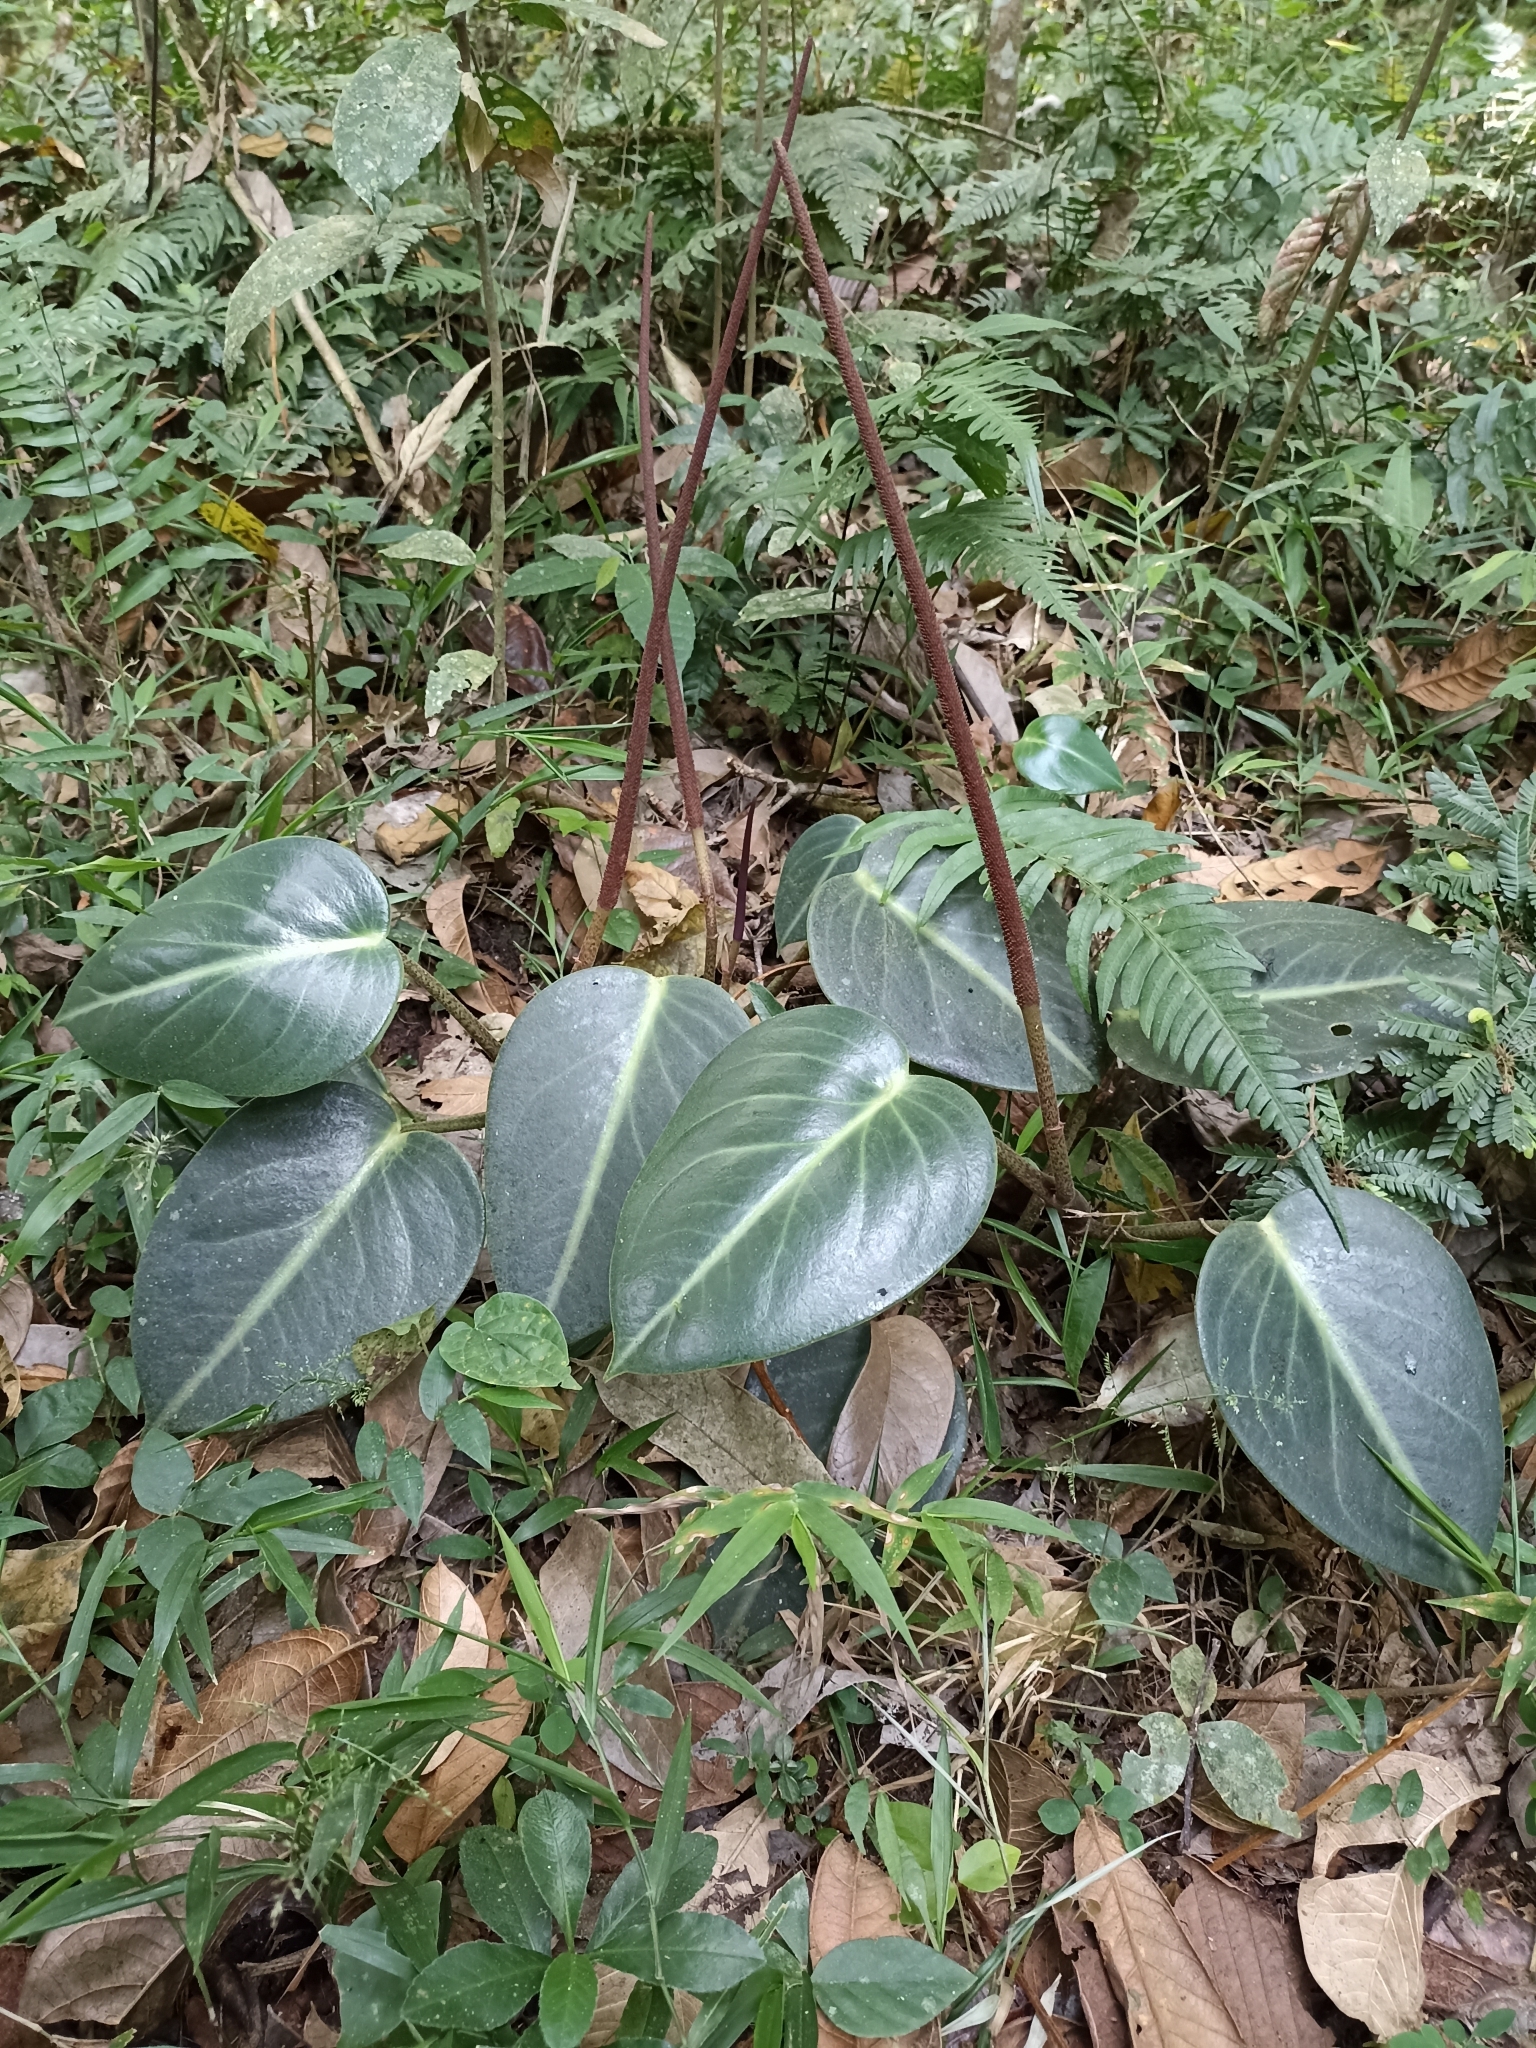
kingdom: Plantae
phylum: Tracheophyta
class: Magnoliopsida
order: Piperales
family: Piperaceae
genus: Peperomia
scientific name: Peperomia maculosa
